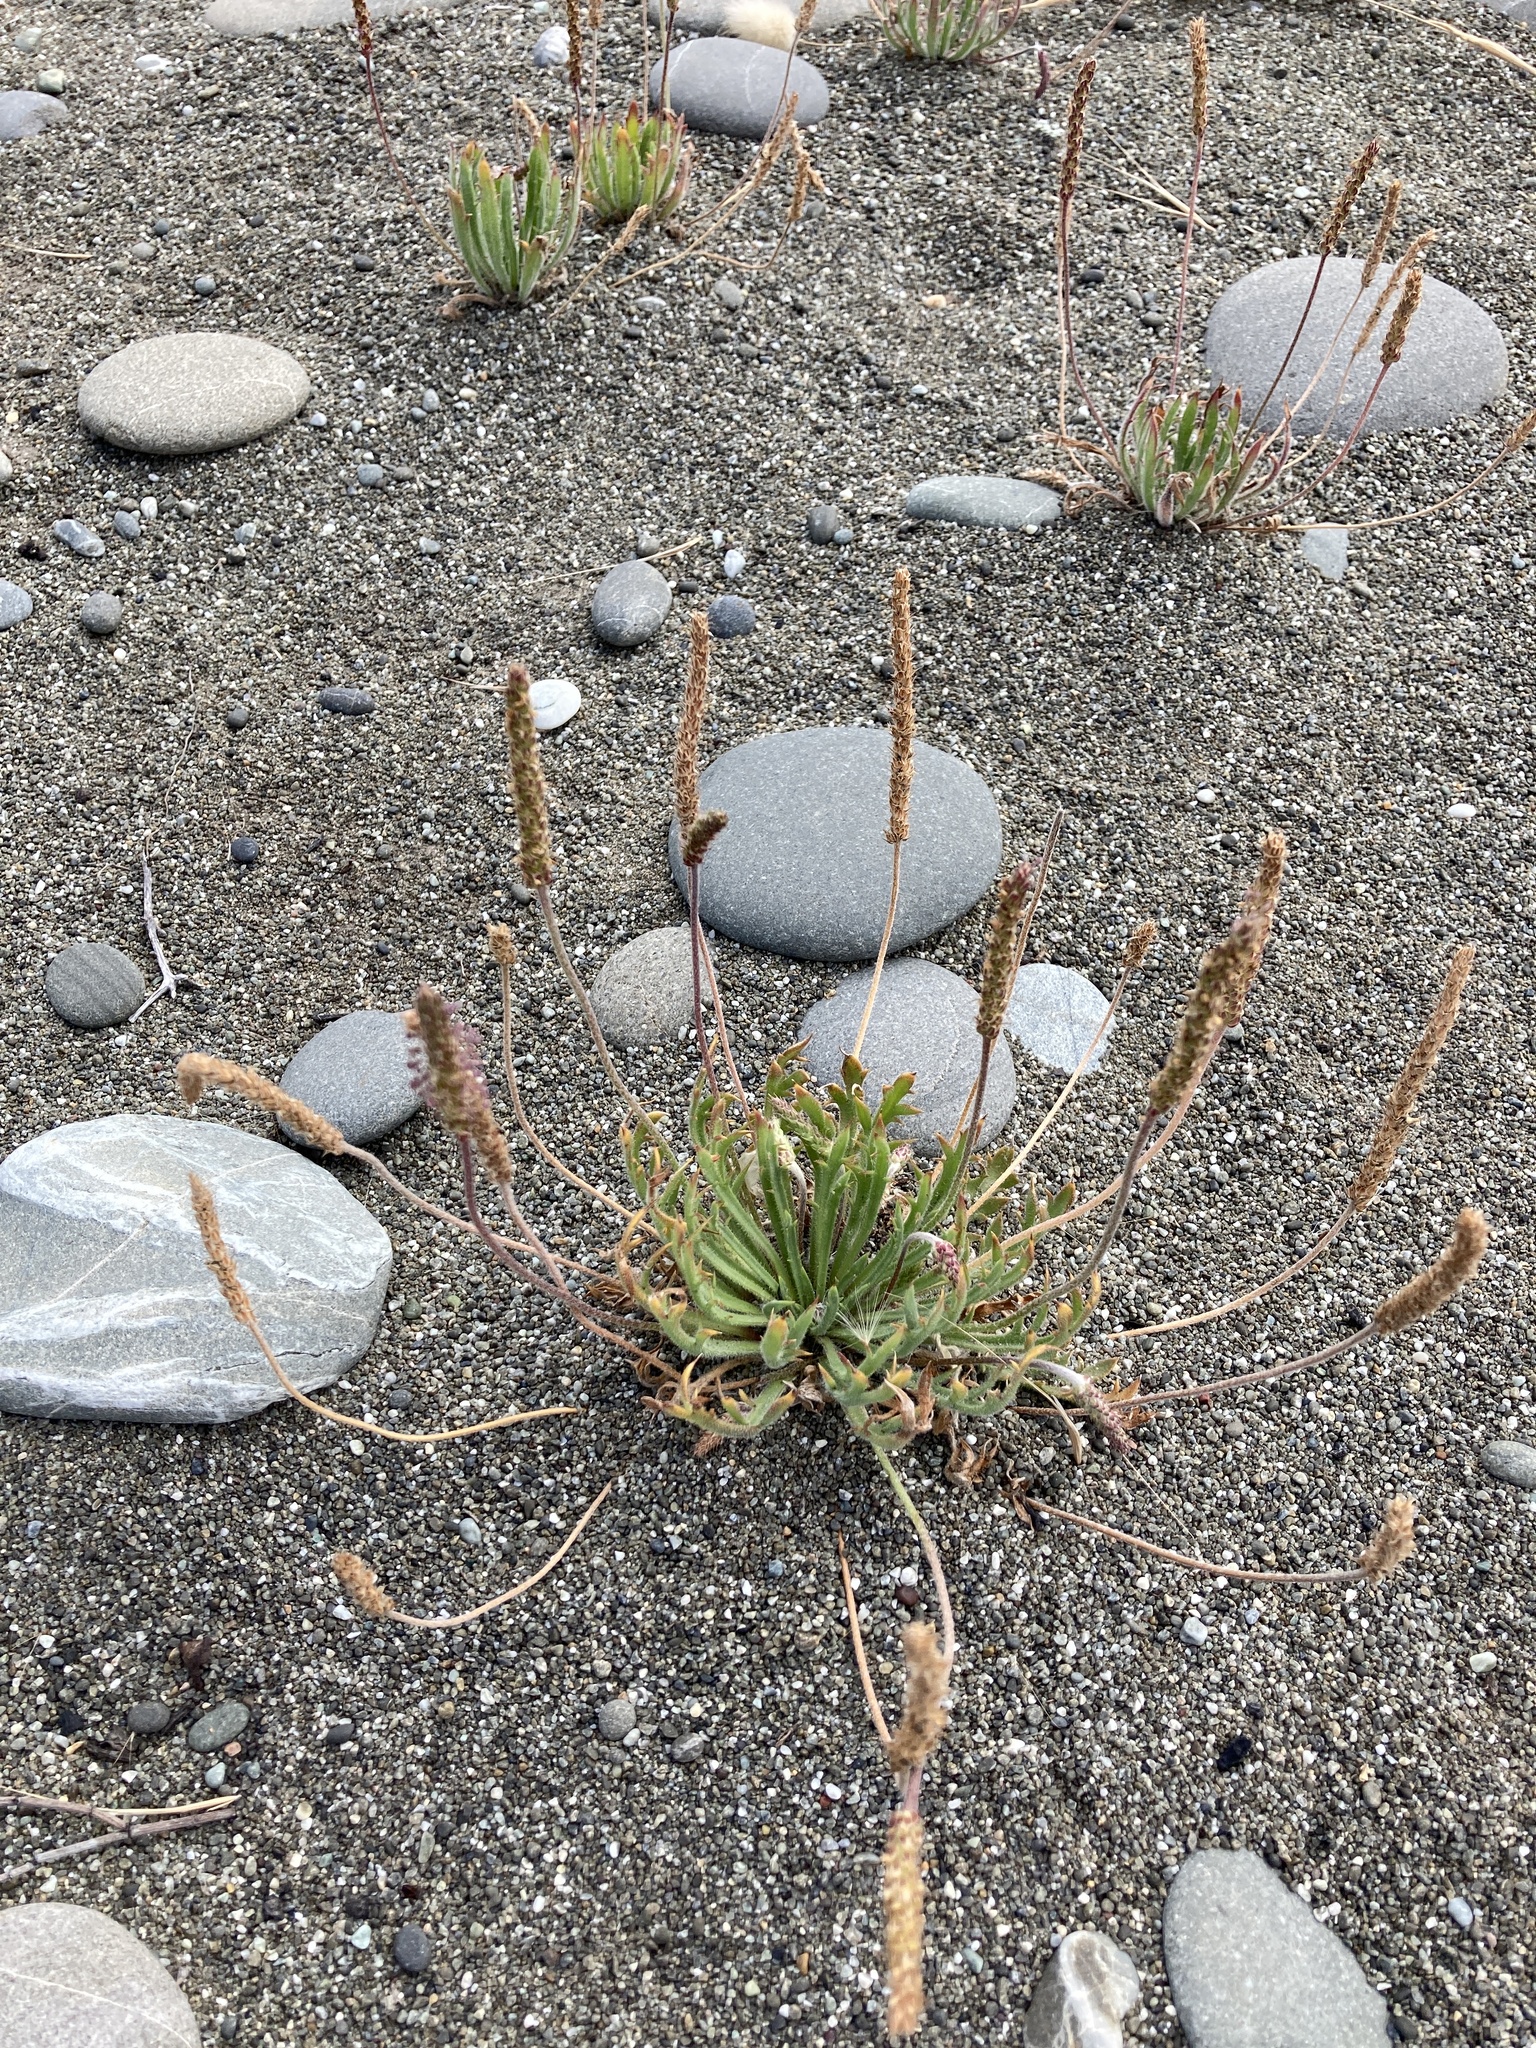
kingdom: Plantae
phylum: Tracheophyta
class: Magnoliopsida
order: Lamiales
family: Plantaginaceae
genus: Plantago
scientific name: Plantago coronopus
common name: Buck's-horn plantain
